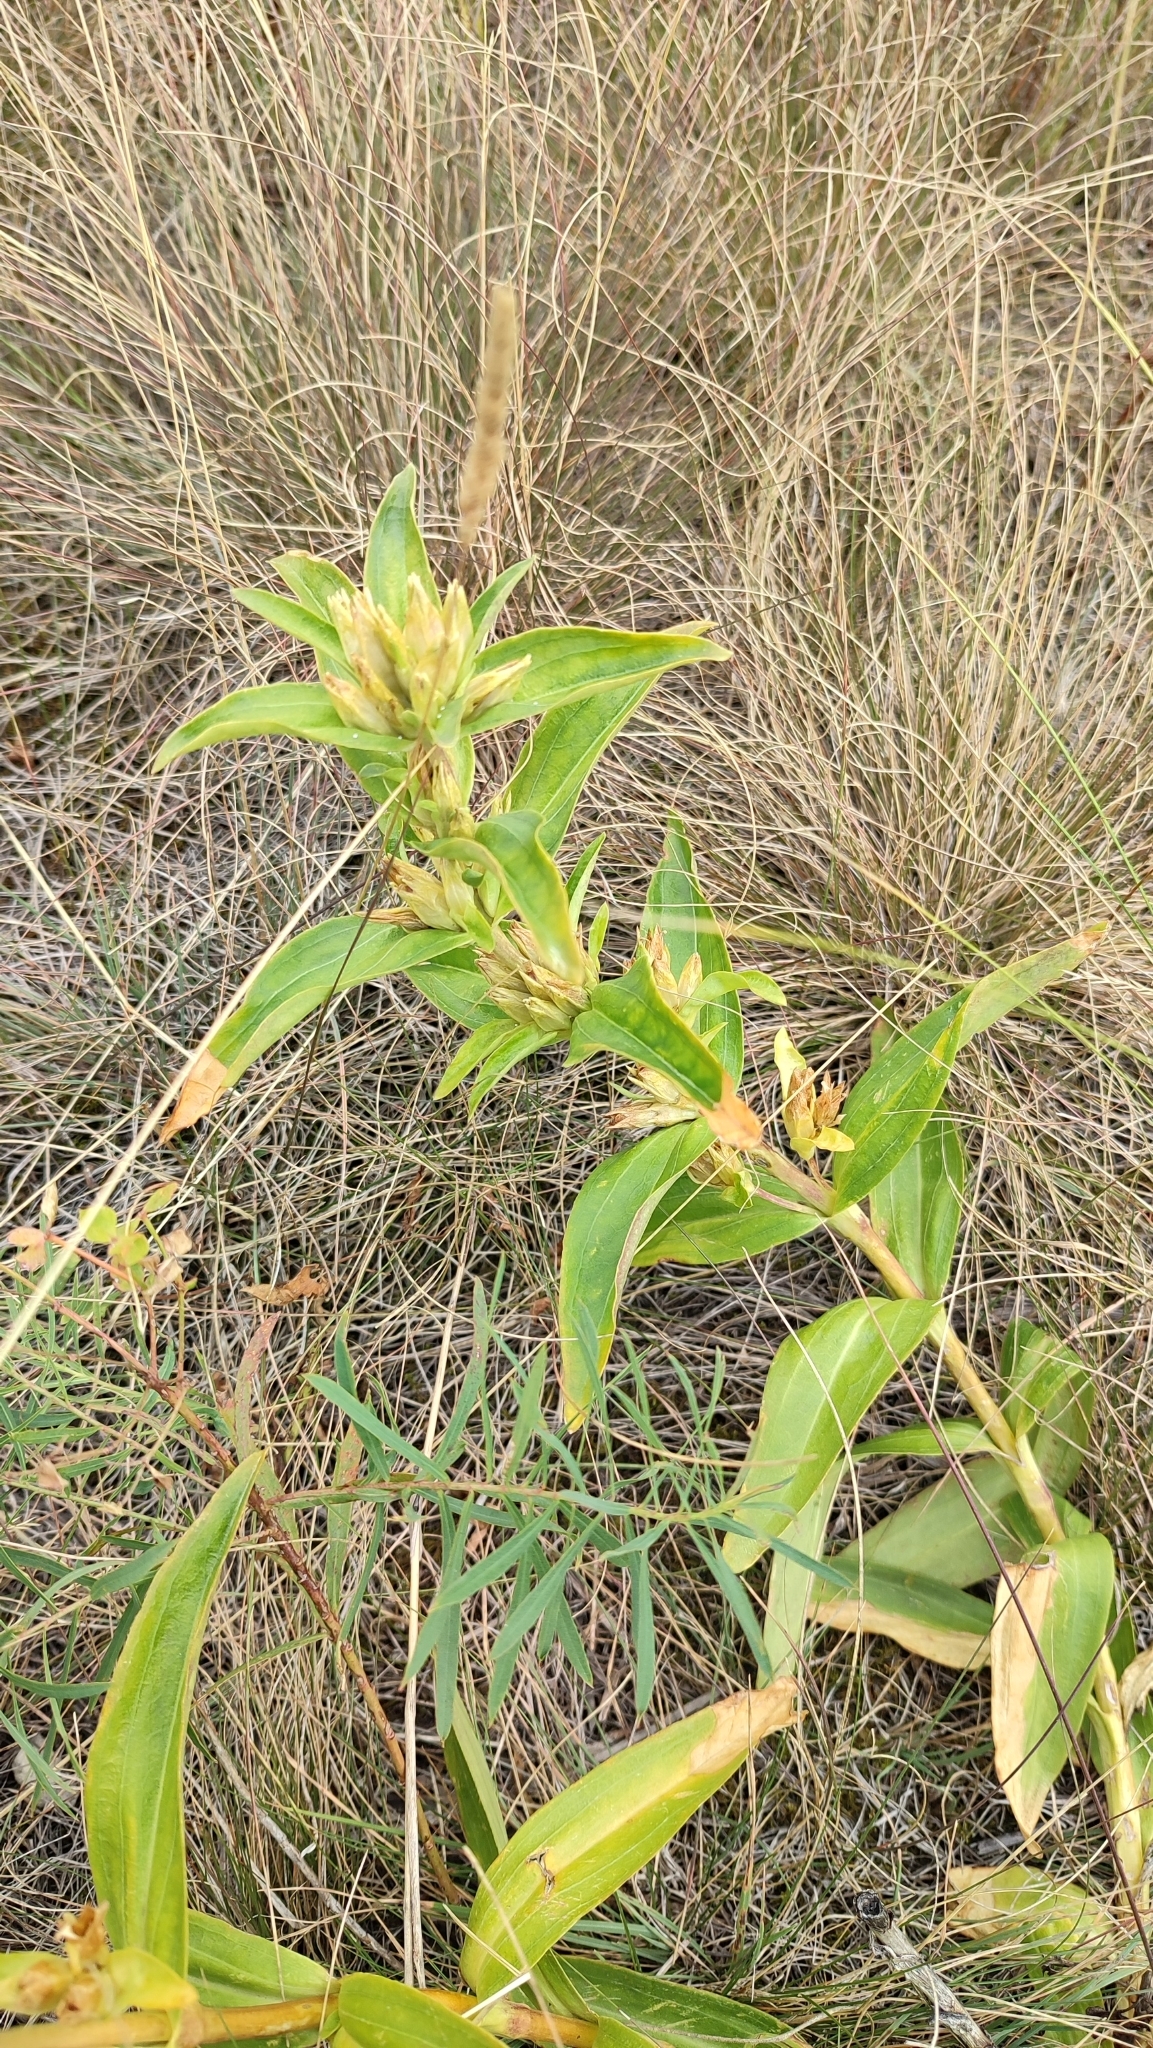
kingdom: Plantae
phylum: Tracheophyta
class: Magnoliopsida
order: Gentianales
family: Gentianaceae
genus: Gentiana
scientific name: Gentiana cruciata
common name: Cross gentian
